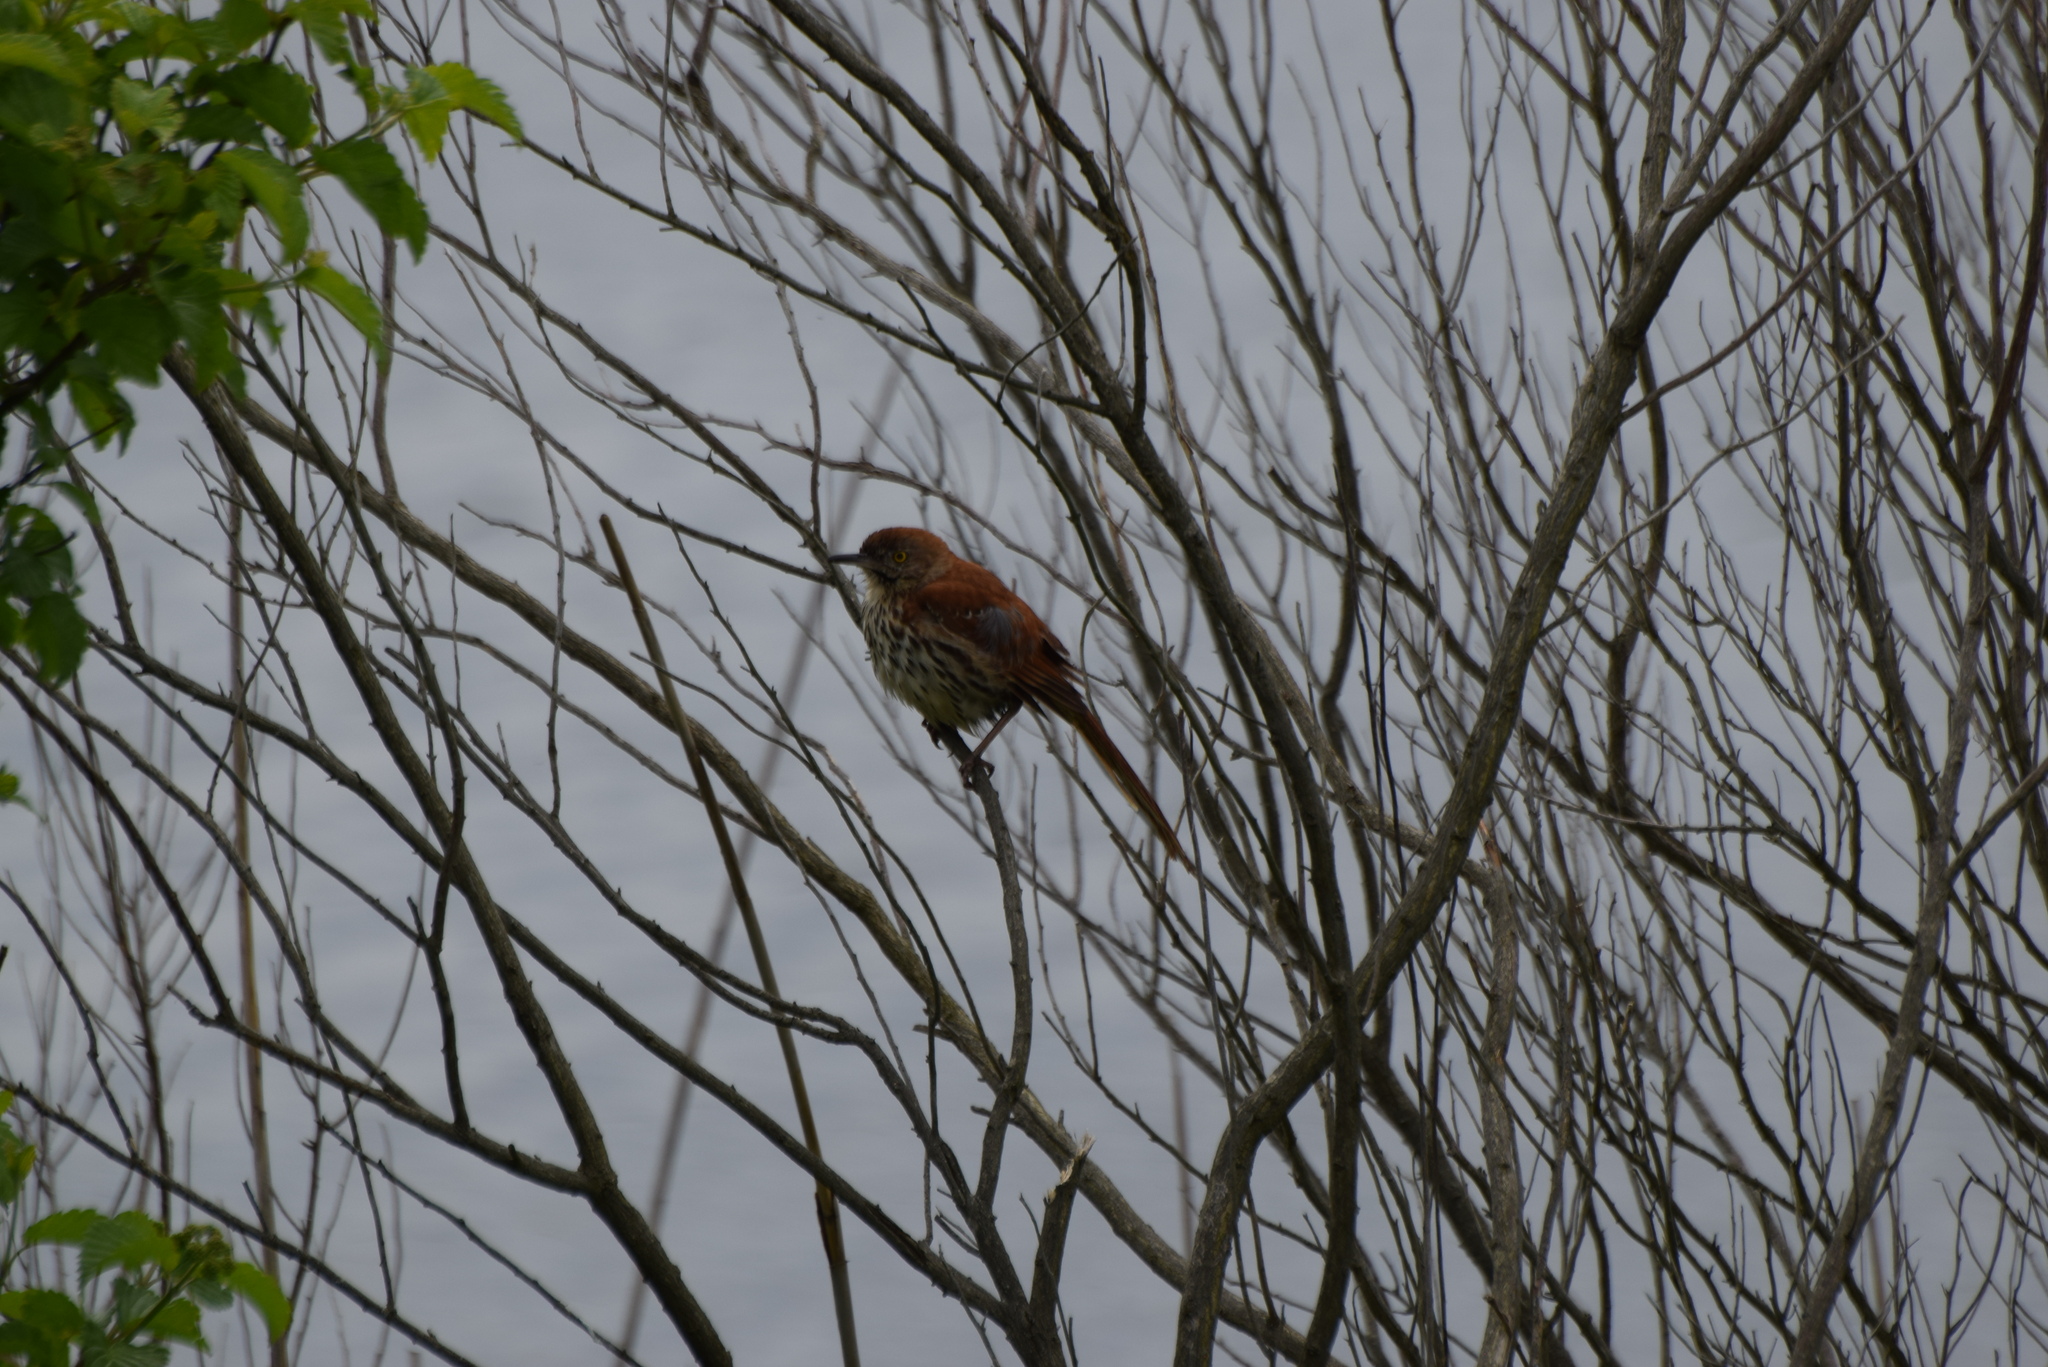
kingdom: Animalia
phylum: Chordata
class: Aves
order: Passeriformes
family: Mimidae
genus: Toxostoma
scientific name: Toxostoma rufum
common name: Brown thrasher
